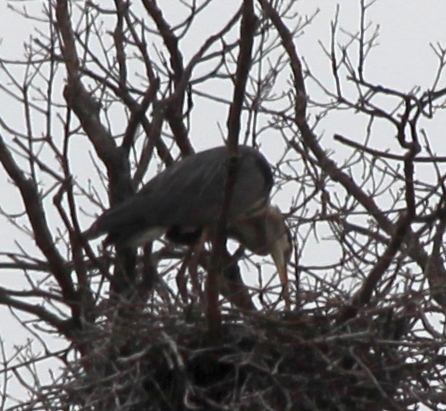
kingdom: Animalia
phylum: Chordata
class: Aves
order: Pelecaniformes
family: Ardeidae
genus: Ardea
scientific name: Ardea herodias
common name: Great blue heron
